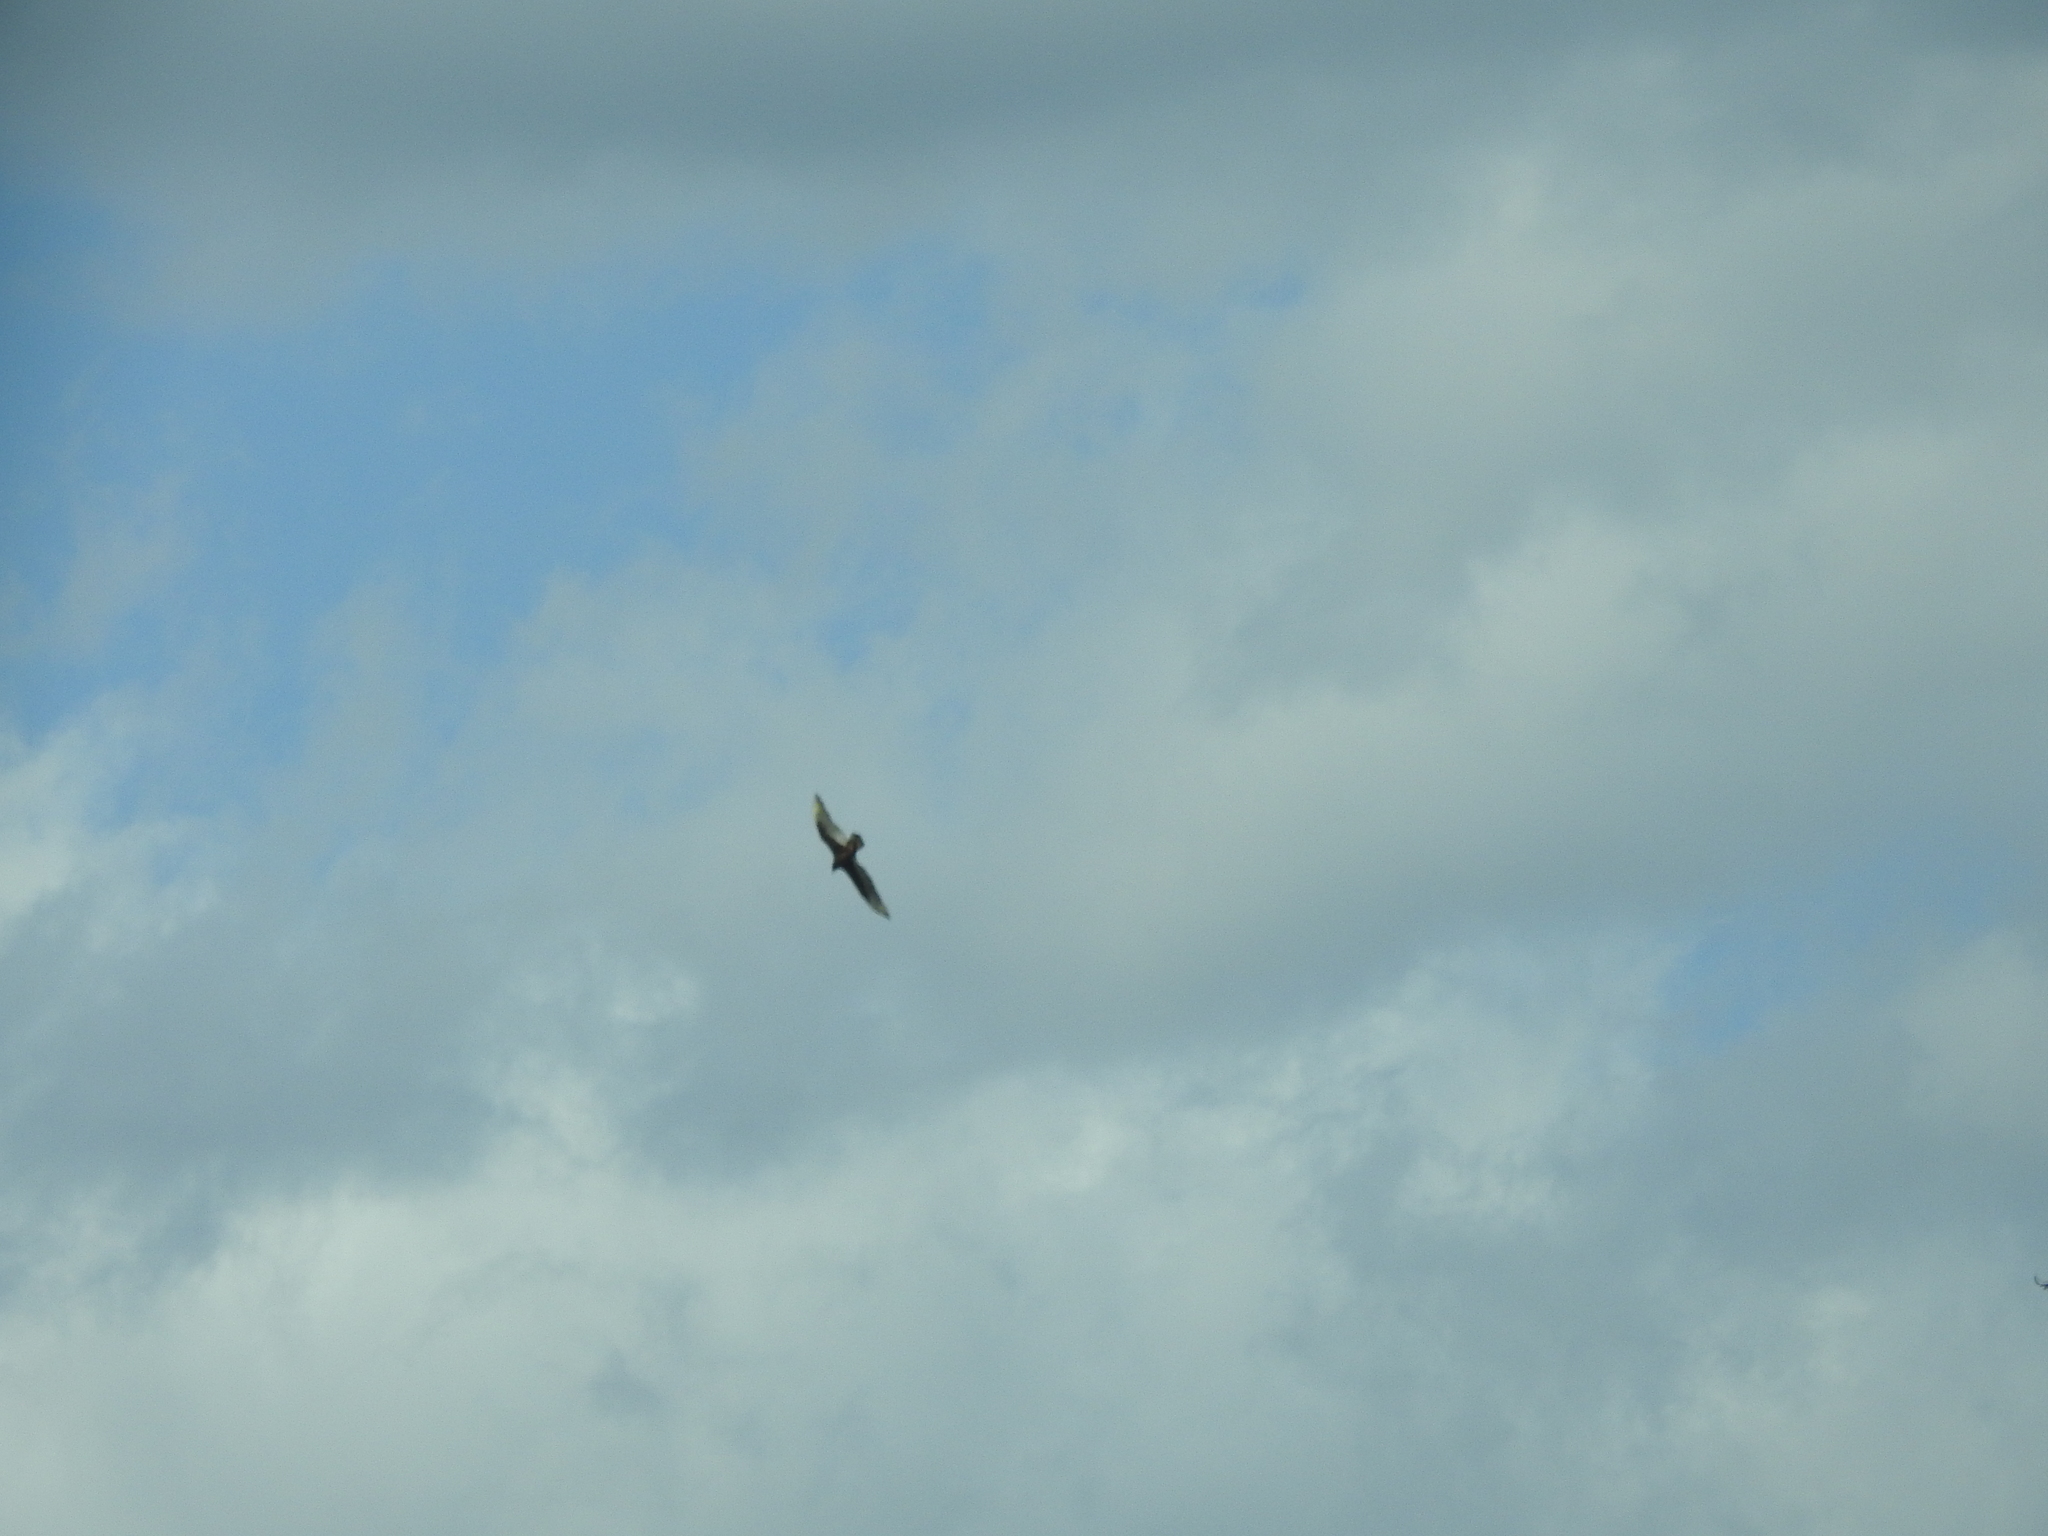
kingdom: Animalia
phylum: Chordata
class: Aves
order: Accipitriformes
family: Cathartidae
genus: Cathartes
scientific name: Cathartes aura
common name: Turkey vulture
